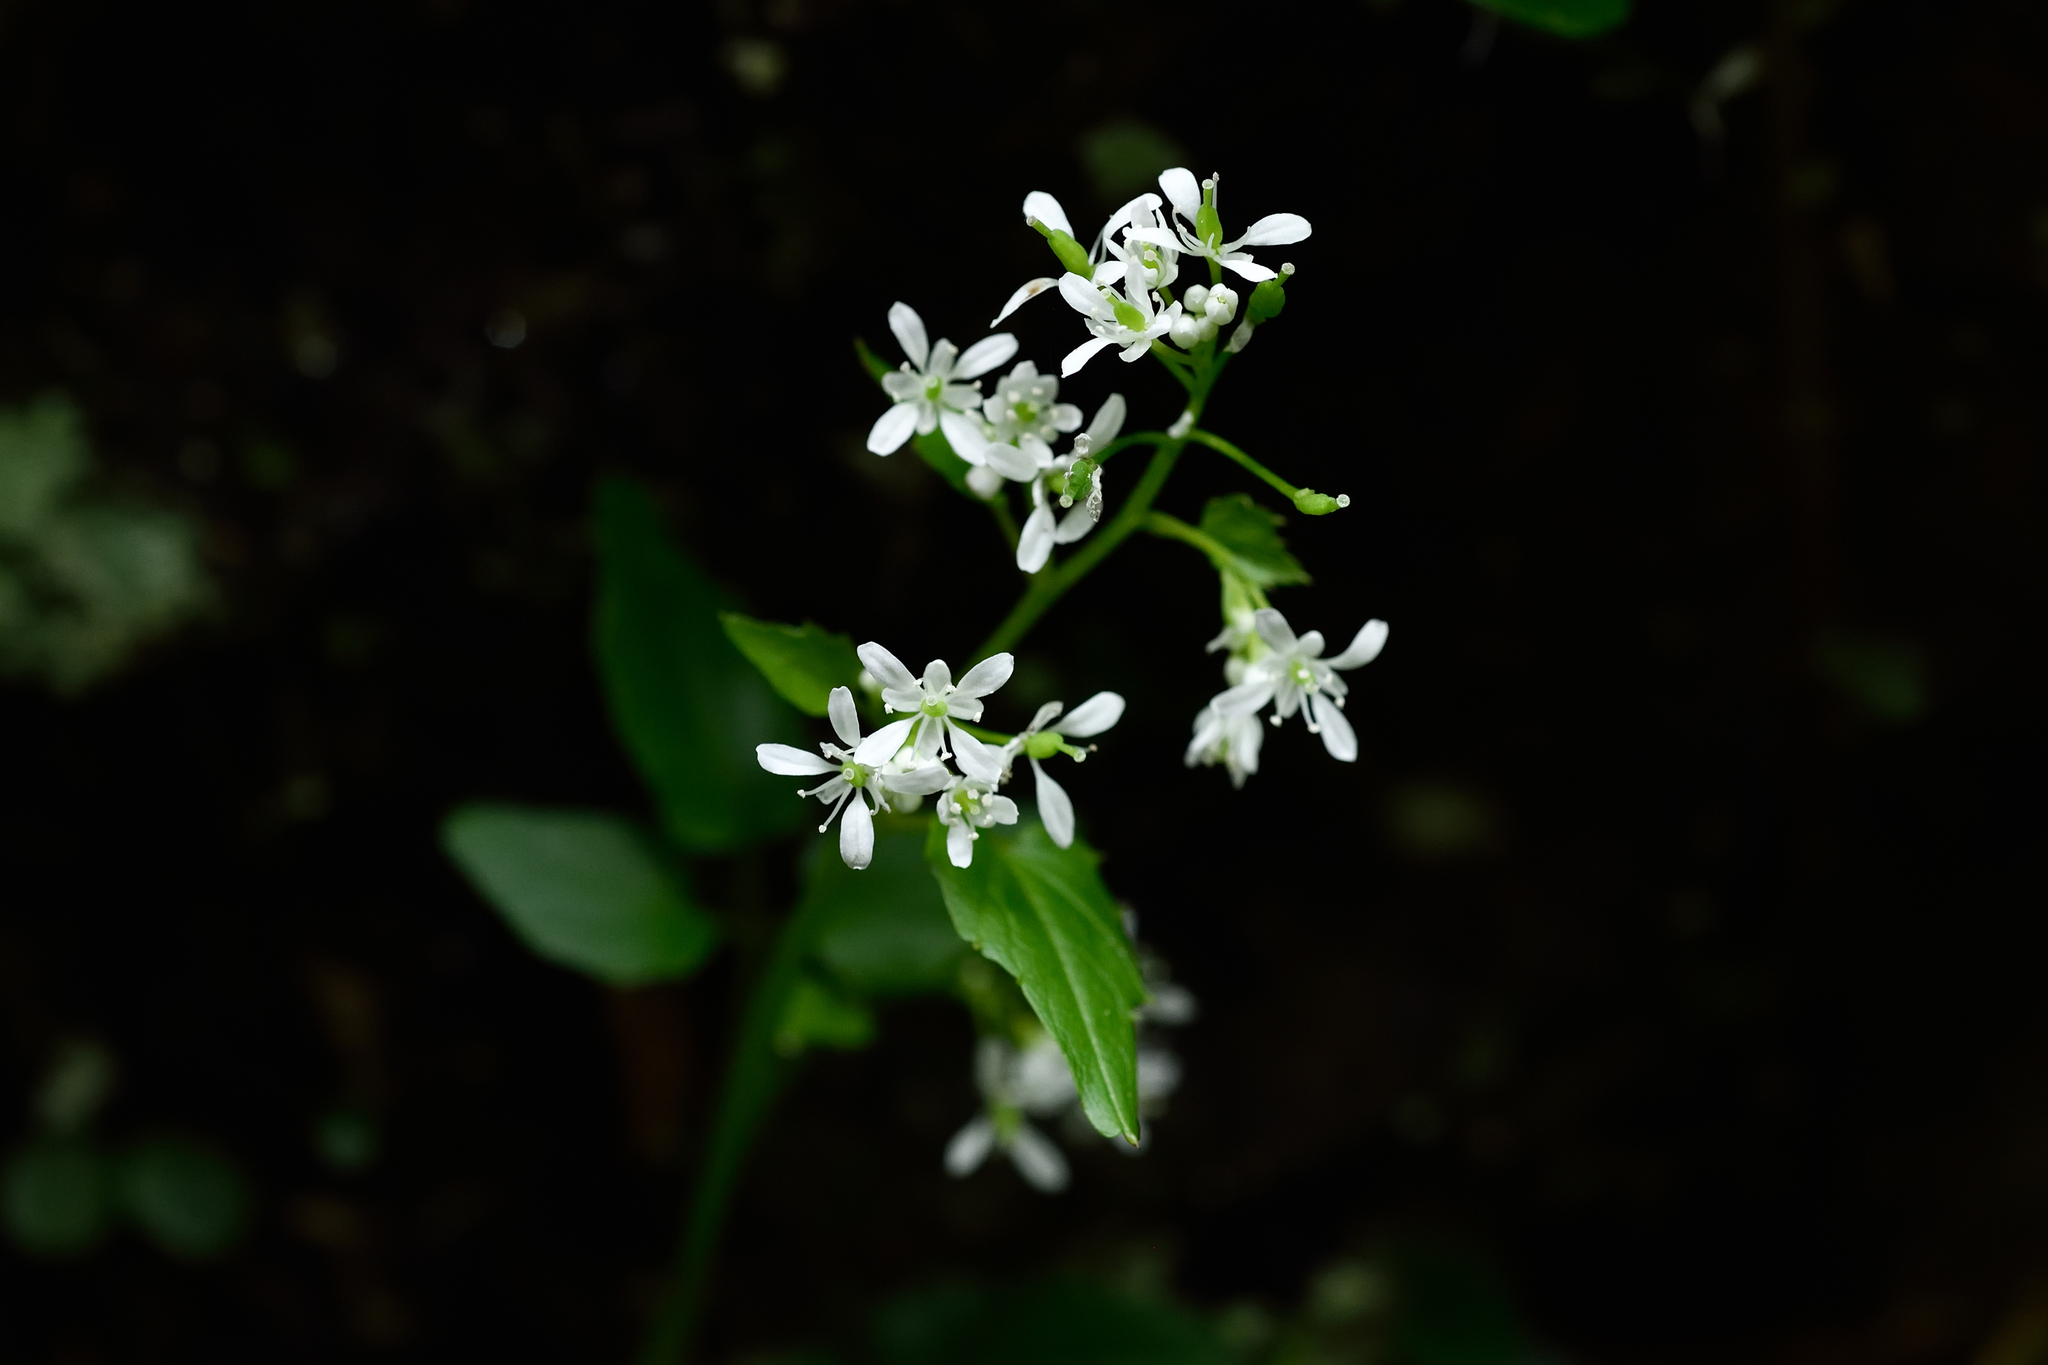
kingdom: Plantae
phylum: Tracheophyta
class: Magnoliopsida
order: Brassicales
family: Brassicaceae
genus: Hilliella
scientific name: Hilliella rivulorum
